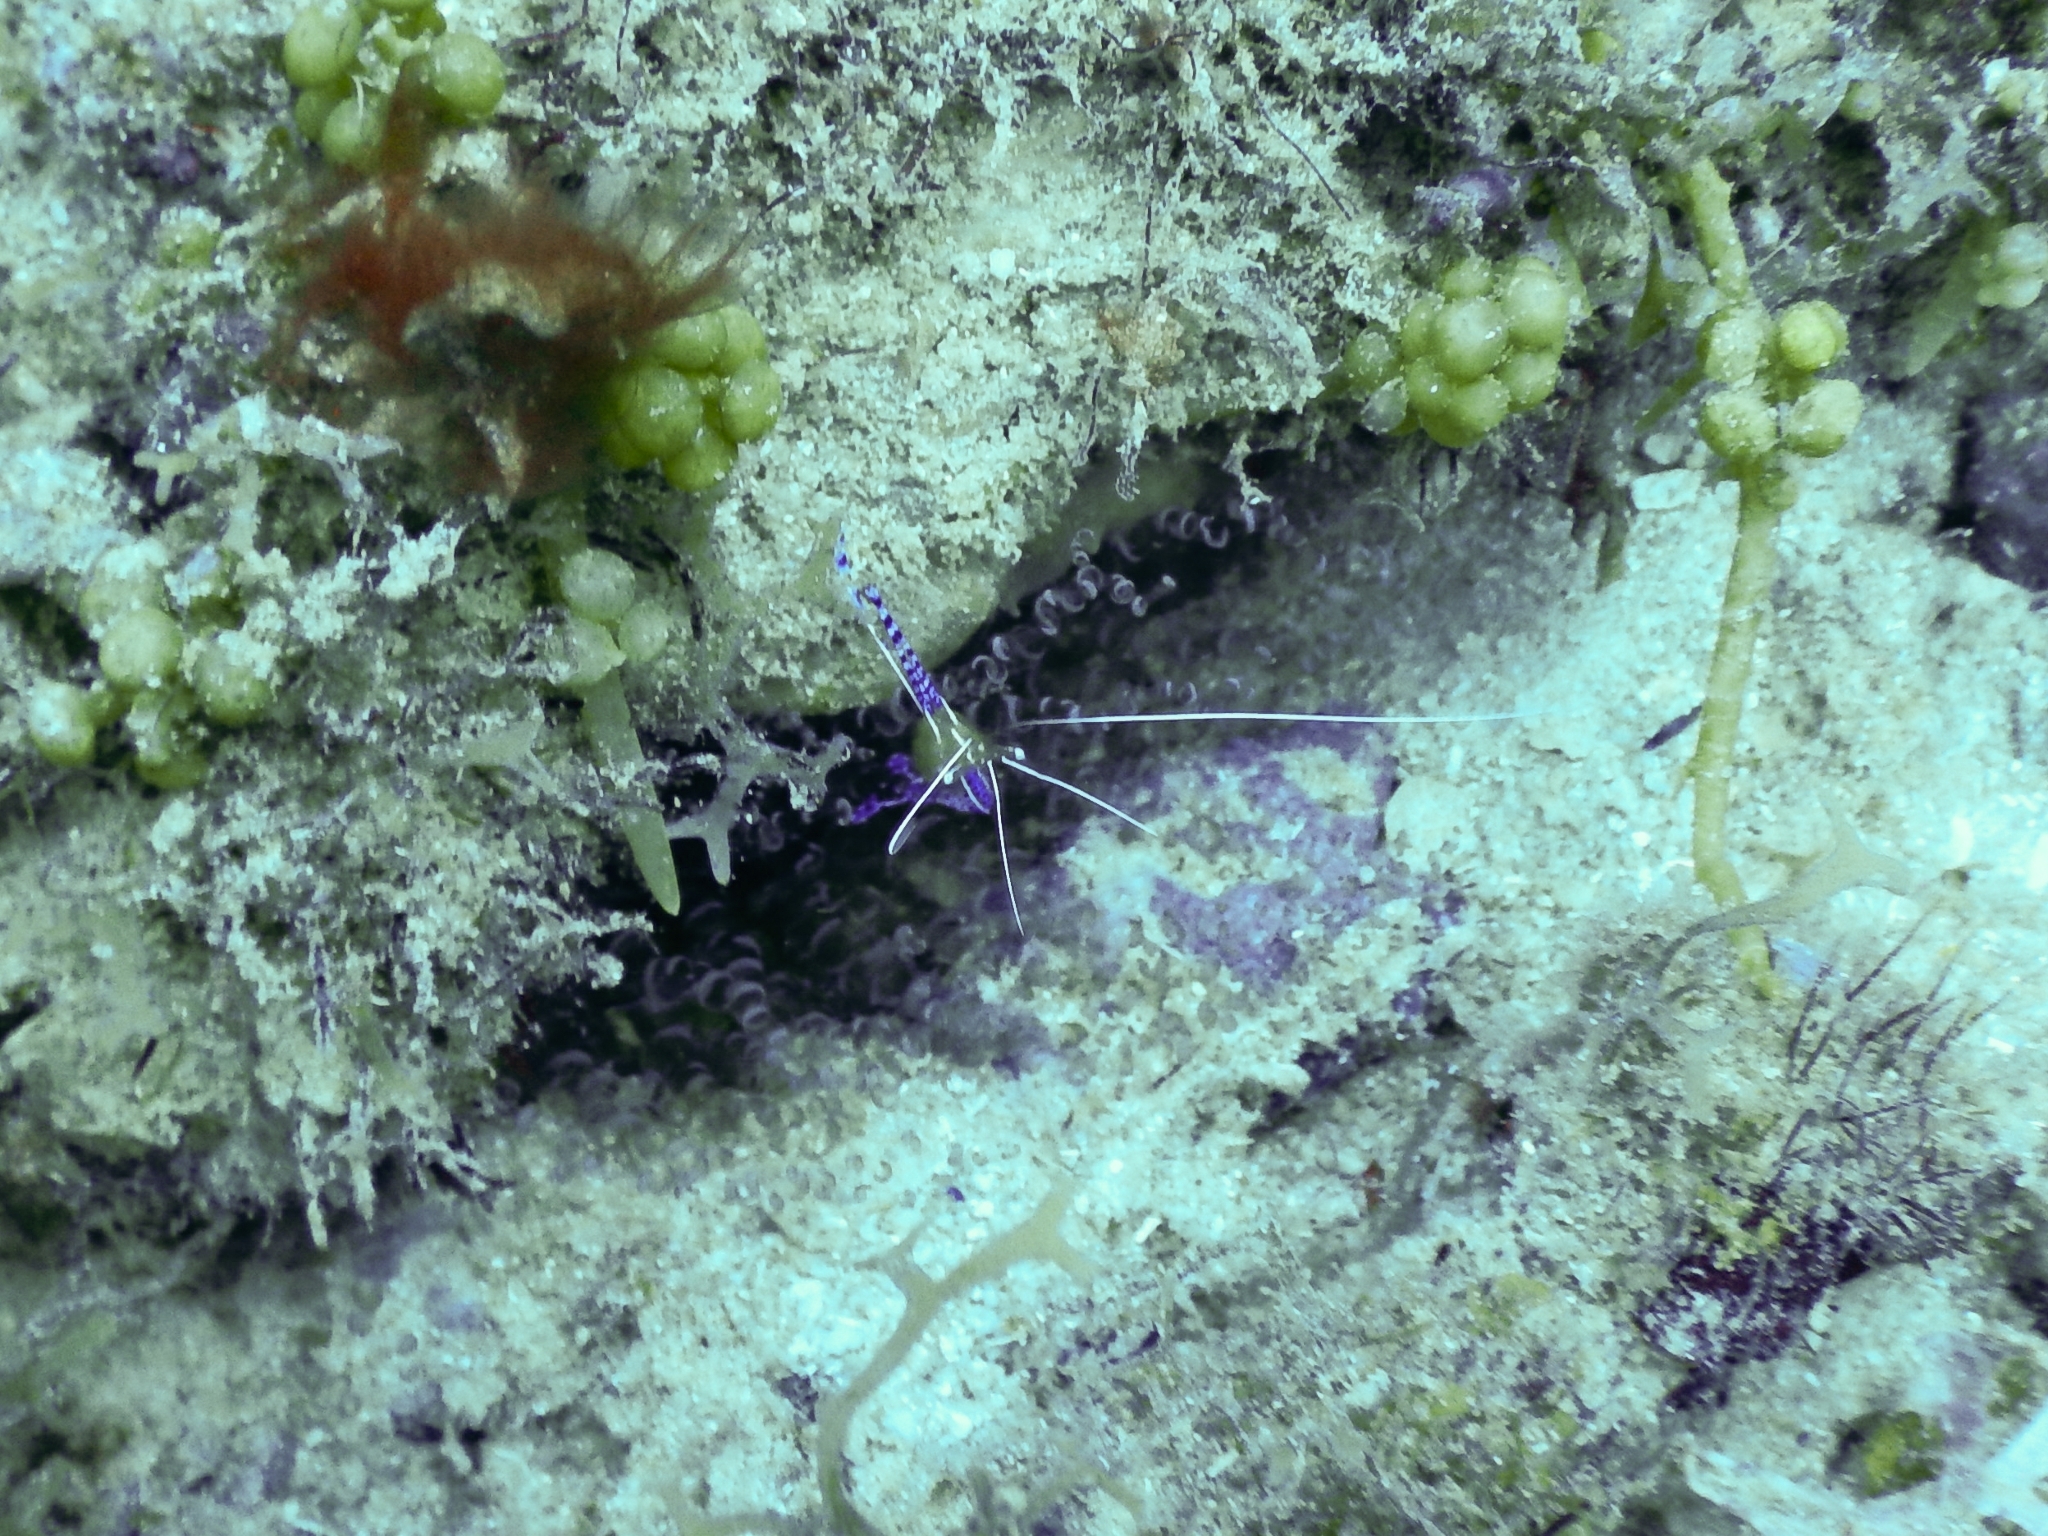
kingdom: Animalia
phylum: Arthropoda
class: Malacostraca
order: Decapoda
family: Palaemonidae
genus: Ancylomenes
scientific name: Ancylomenes pedersoni
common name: Pederson's cleaning shrimp
